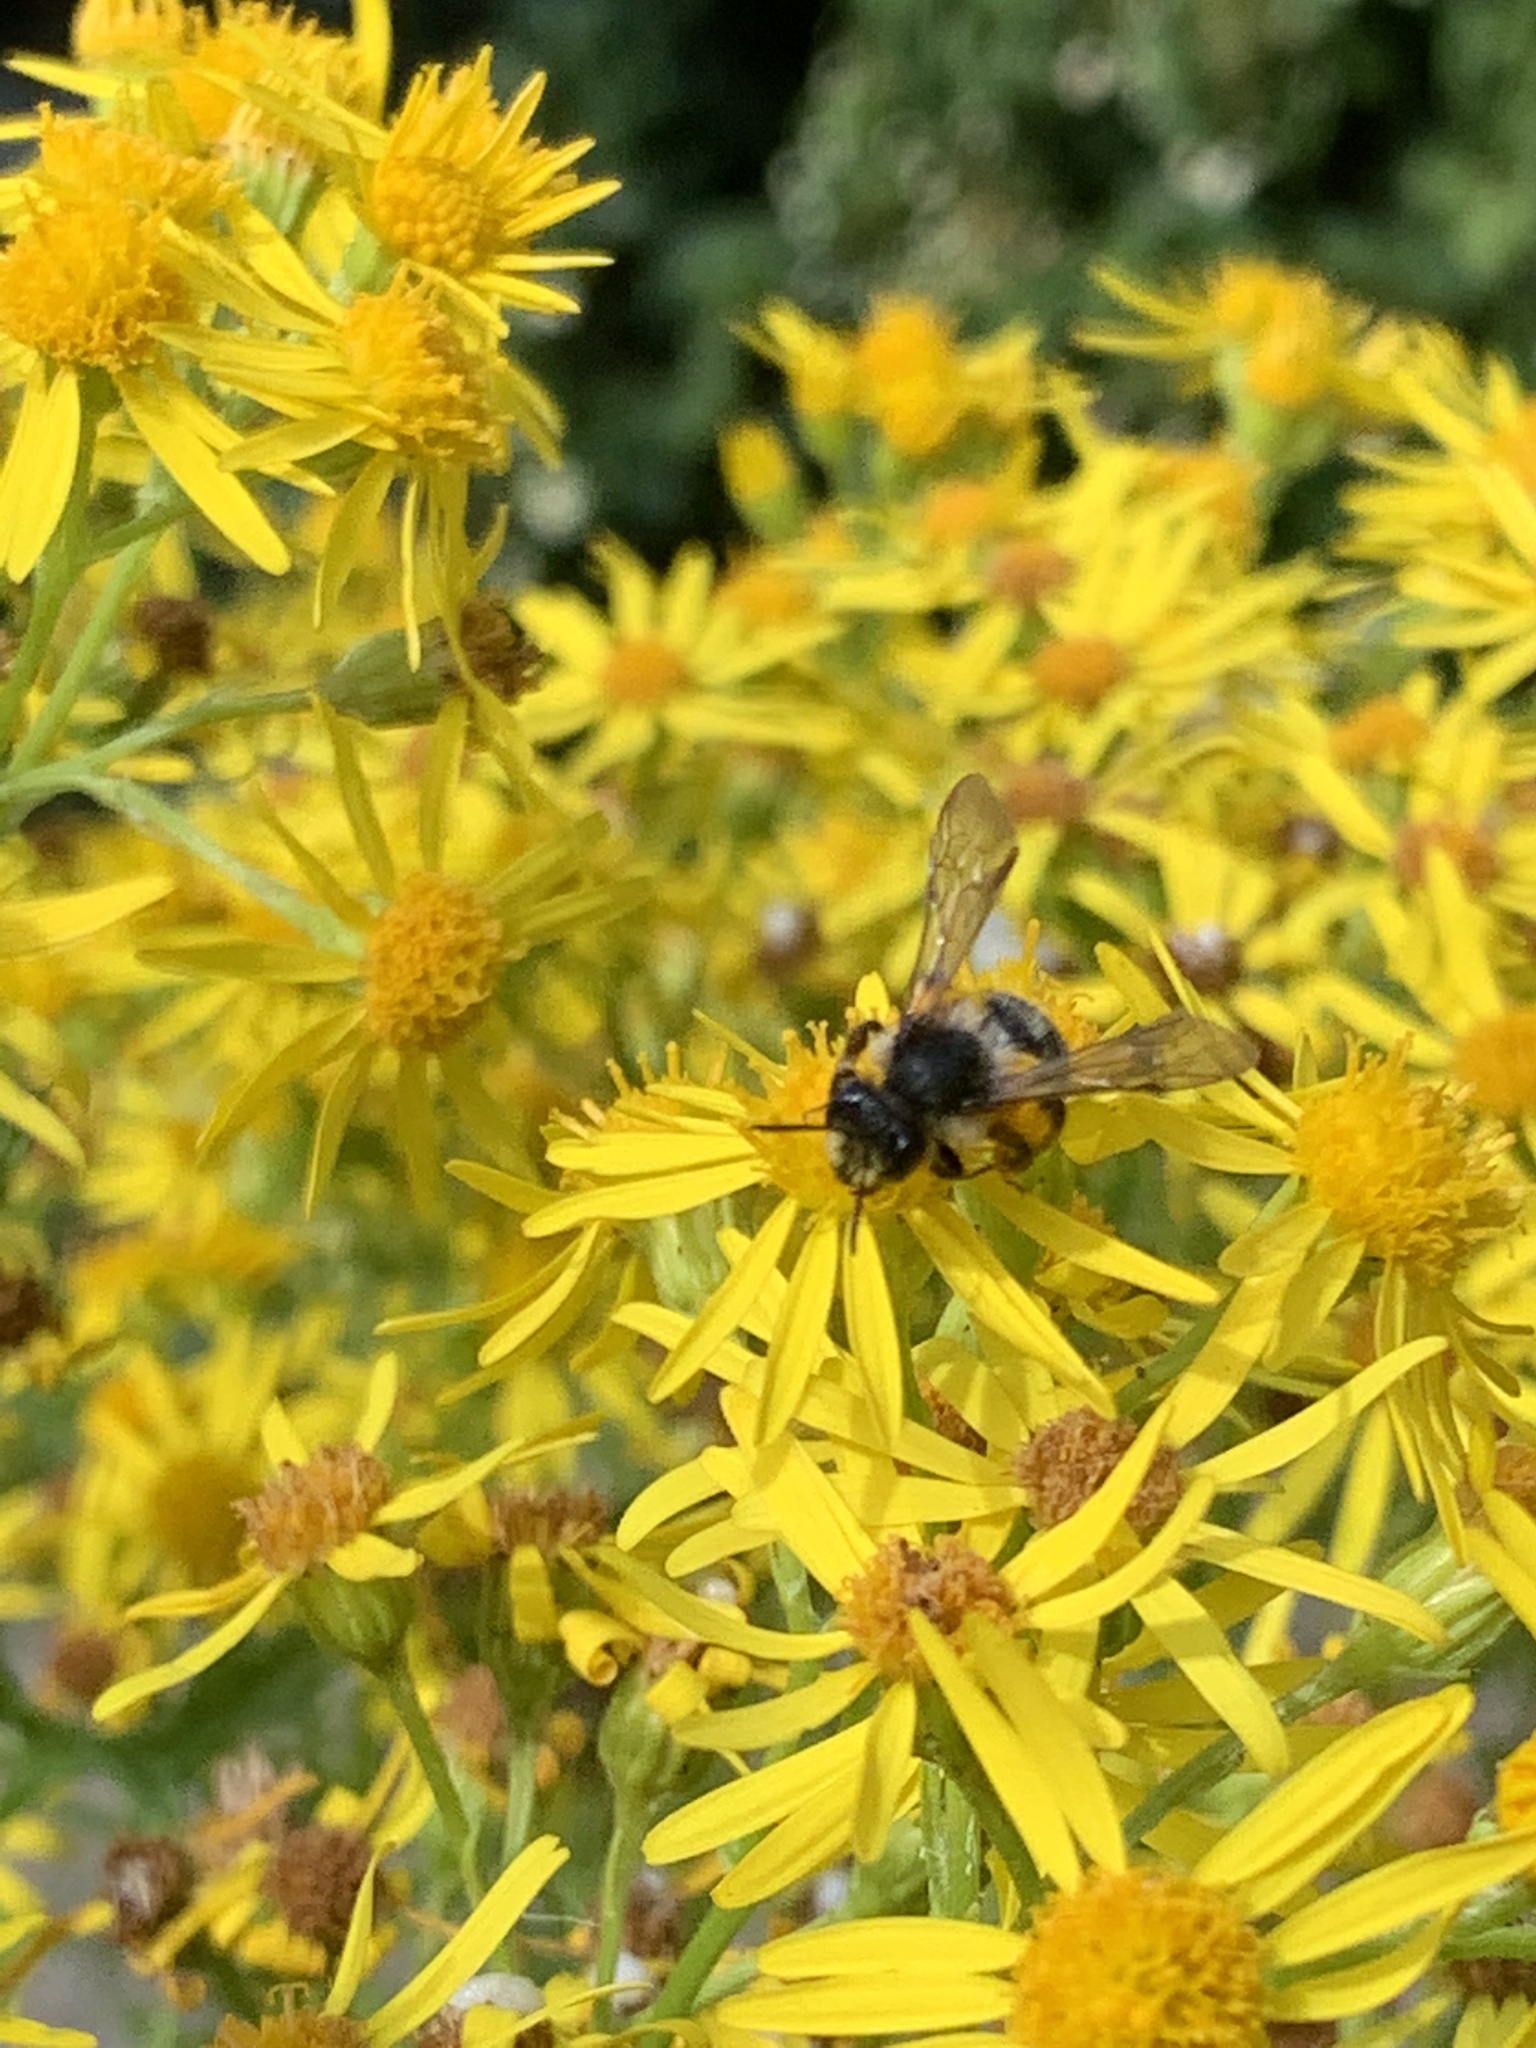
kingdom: Animalia
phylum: Arthropoda
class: Insecta
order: Hymenoptera
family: Andrenidae
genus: Andrena
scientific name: Andrena denticulata
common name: Grey-banded mining bee
